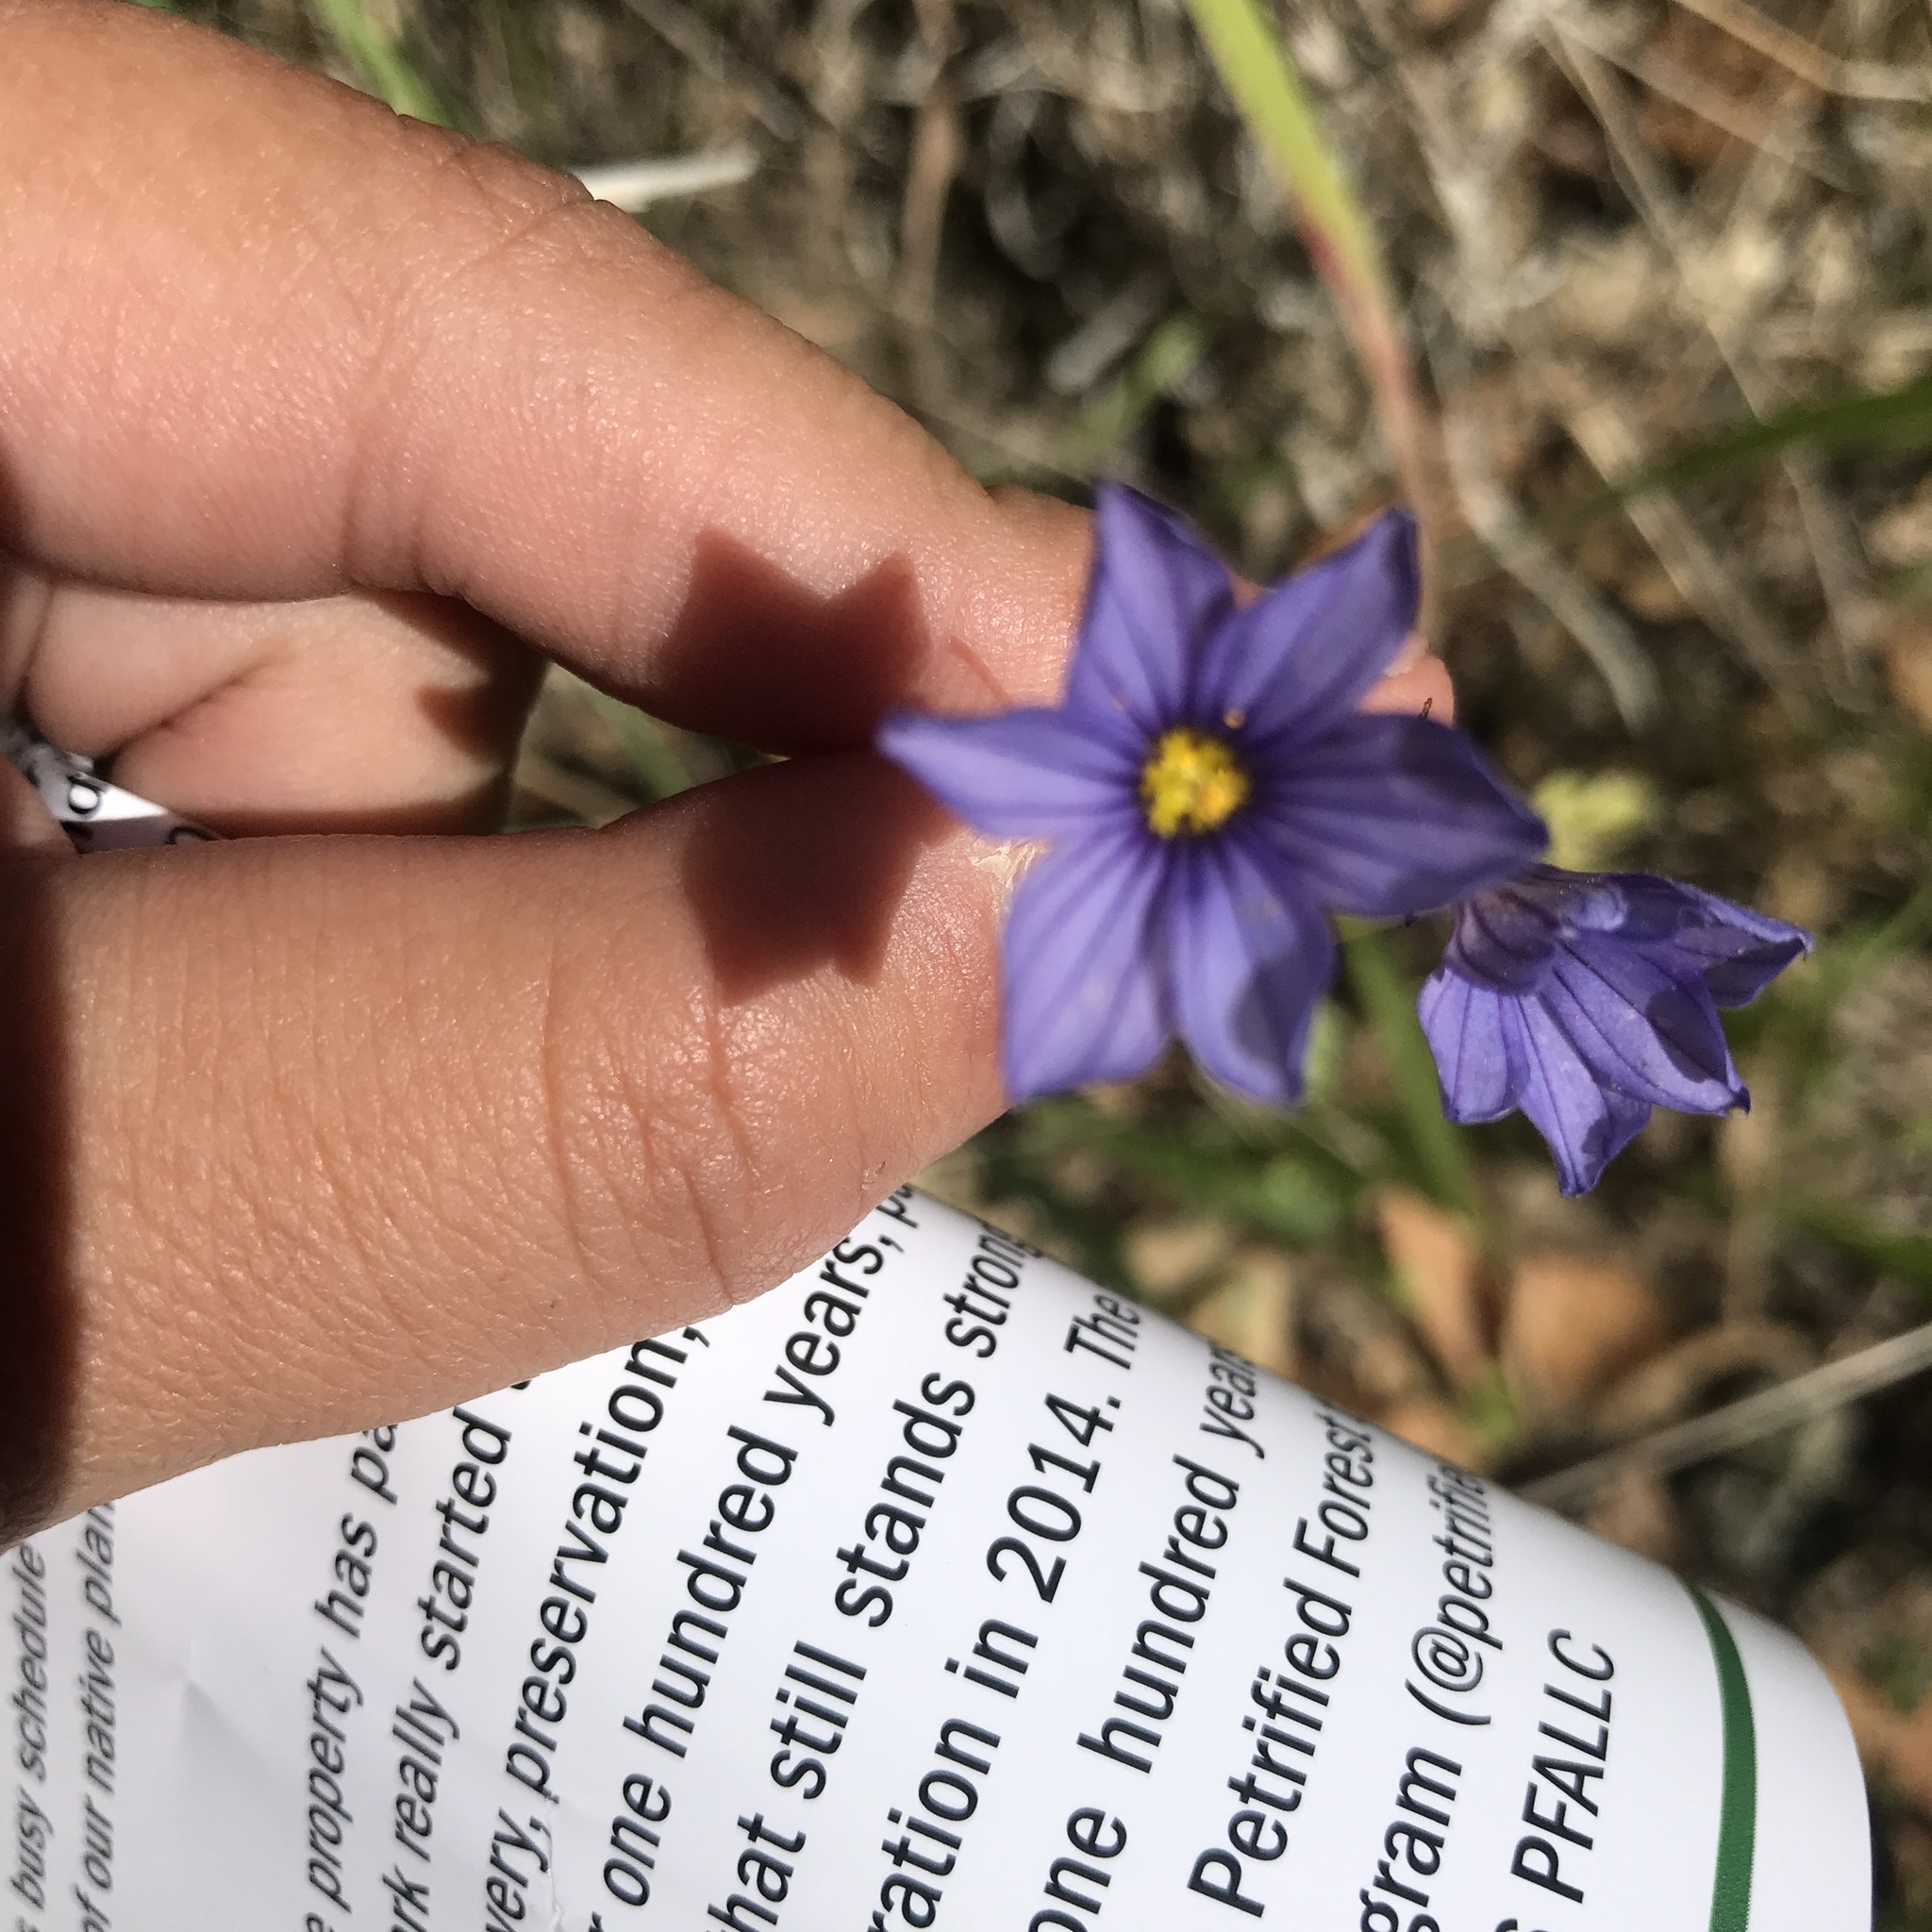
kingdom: Plantae
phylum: Tracheophyta
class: Liliopsida
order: Asparagales
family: Iridaceae
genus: Sisyrinchium
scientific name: Sisyrinchium bellum
